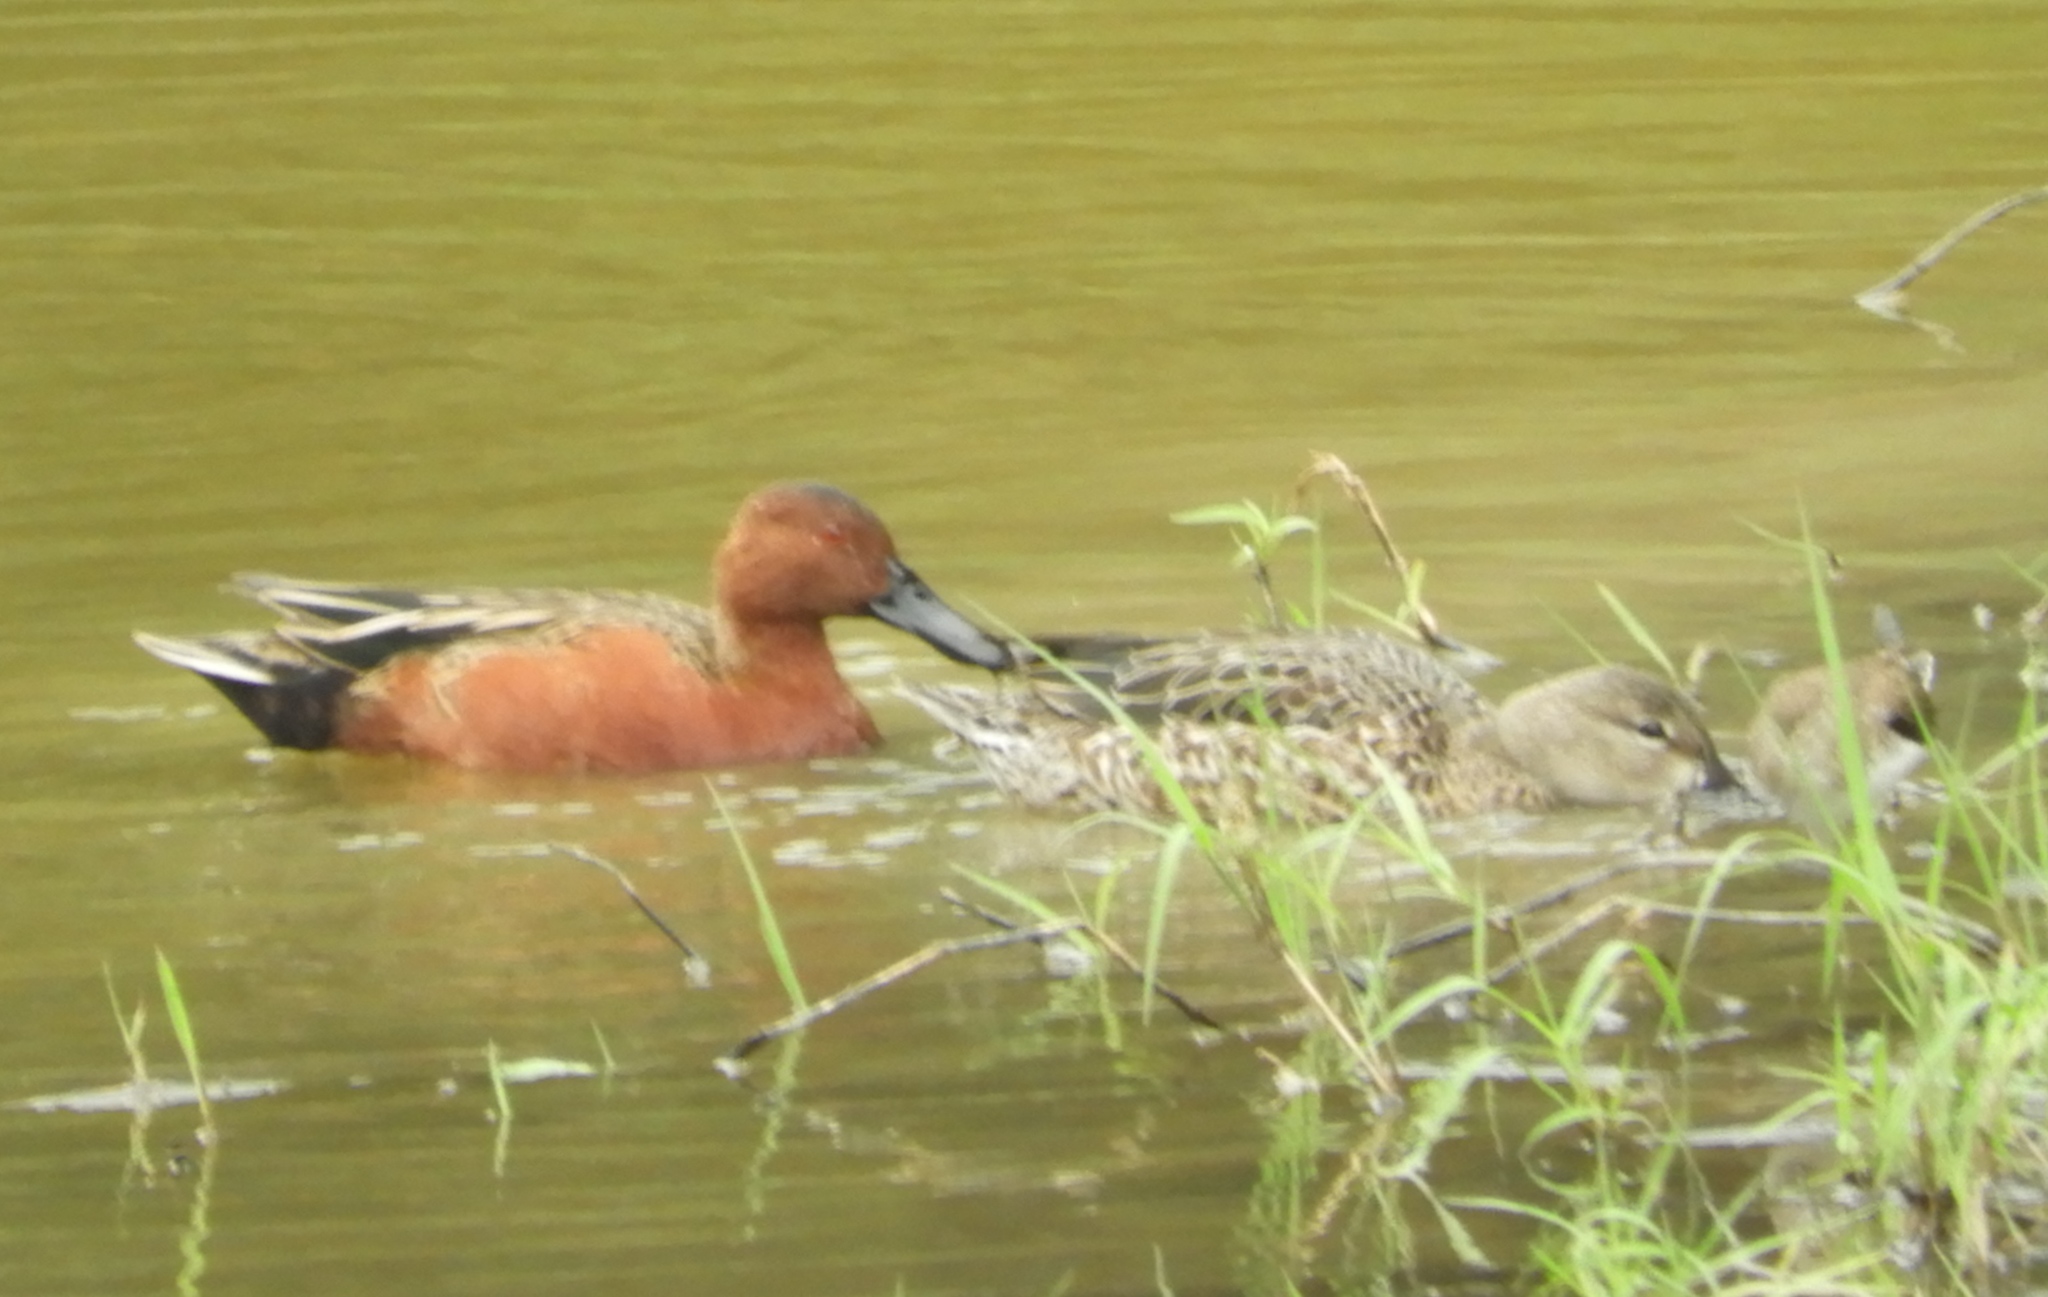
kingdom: Animalia
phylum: Chordata
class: Aves
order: Anseriformes
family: Anatidae
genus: Spatula
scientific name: Spatula cyanoptera
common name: Cinnamon teal
